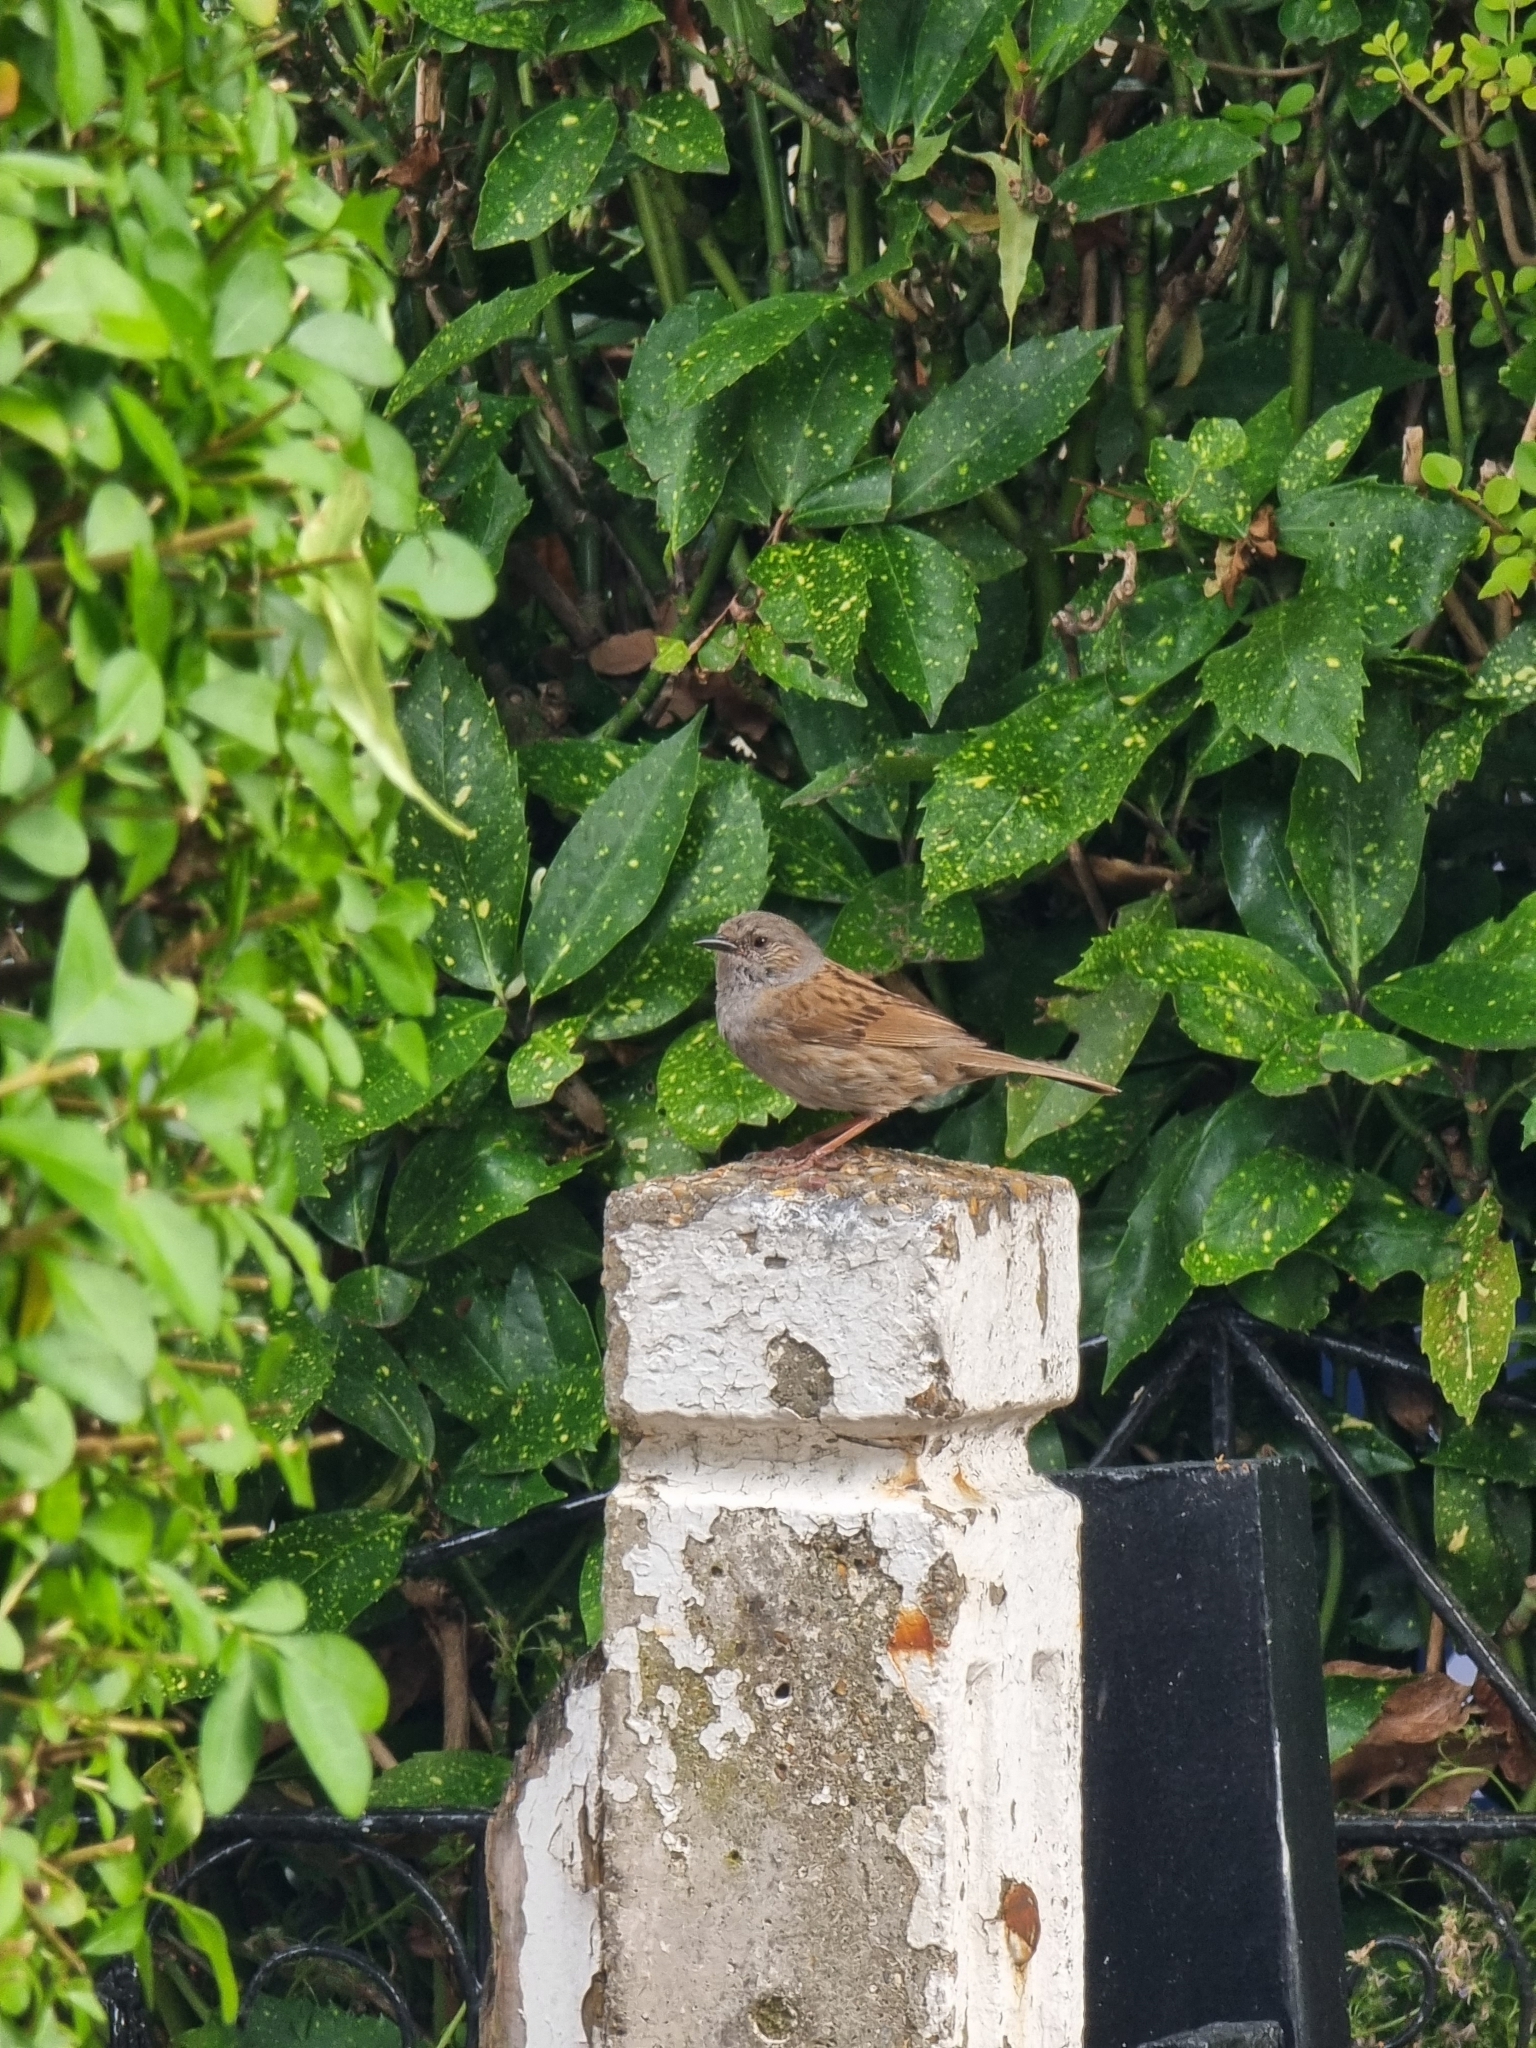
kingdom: Animalia
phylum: Chordata
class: Aves
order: Passeriformes
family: Prunellidae
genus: Prunella
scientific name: Prunella modularis
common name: Dunnock
